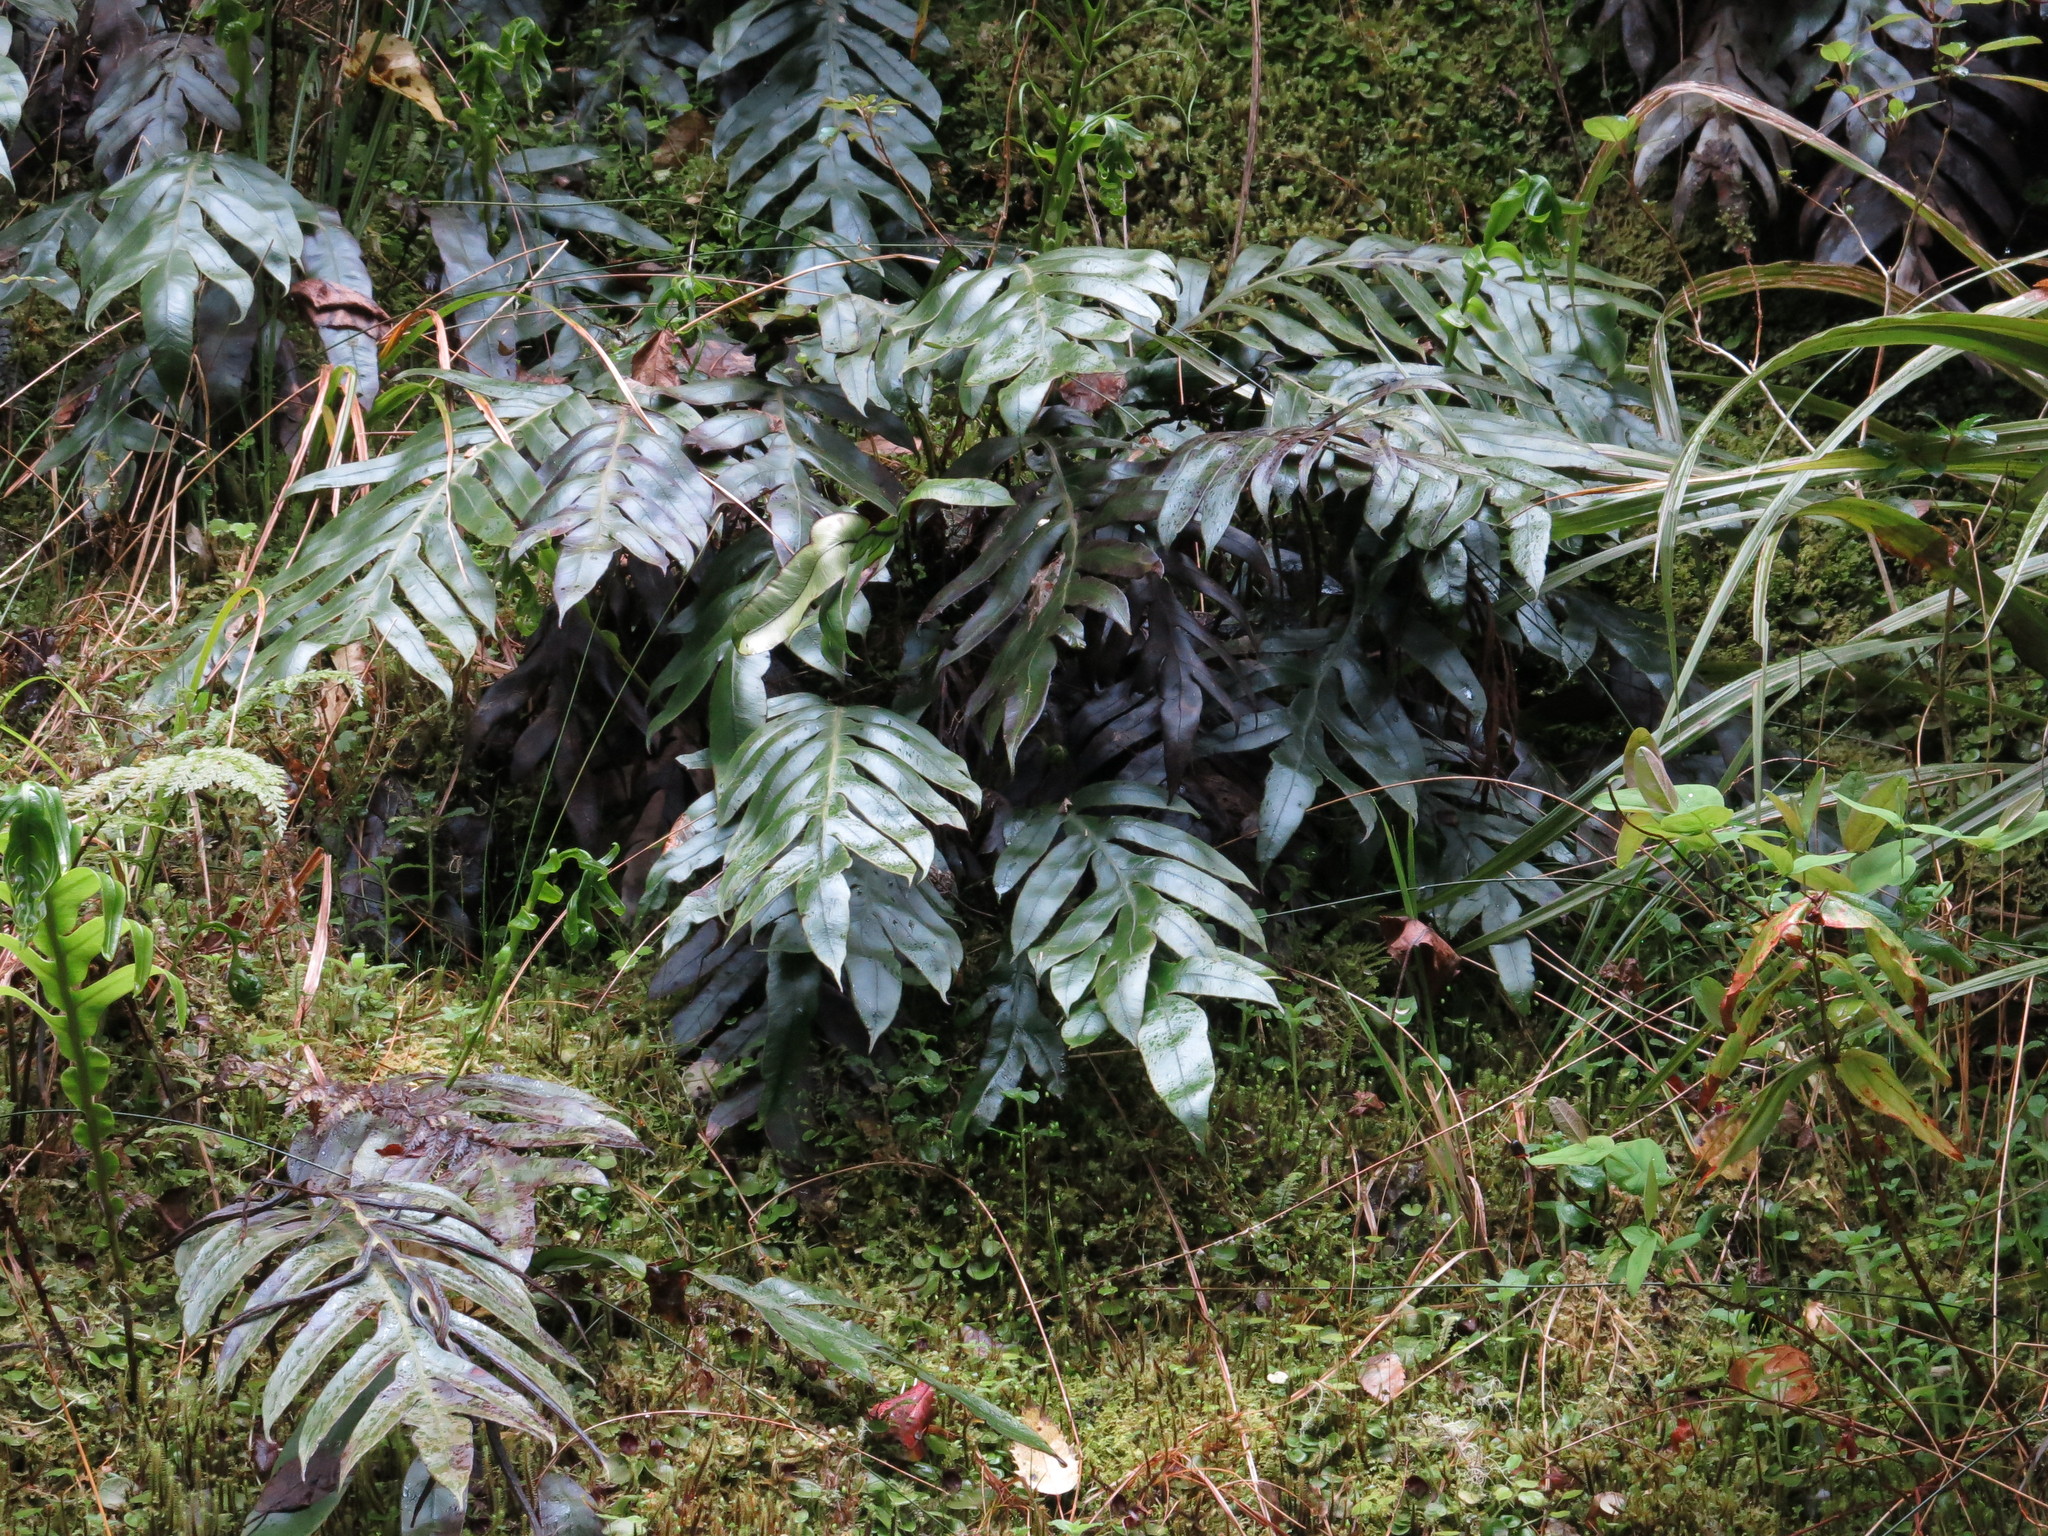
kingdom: Plantae
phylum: Tracheophyta
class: Polypodiopsida
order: Polypodiales
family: Blechnaceae
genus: Austroblechnum
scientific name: Austroblechnum colensoi
